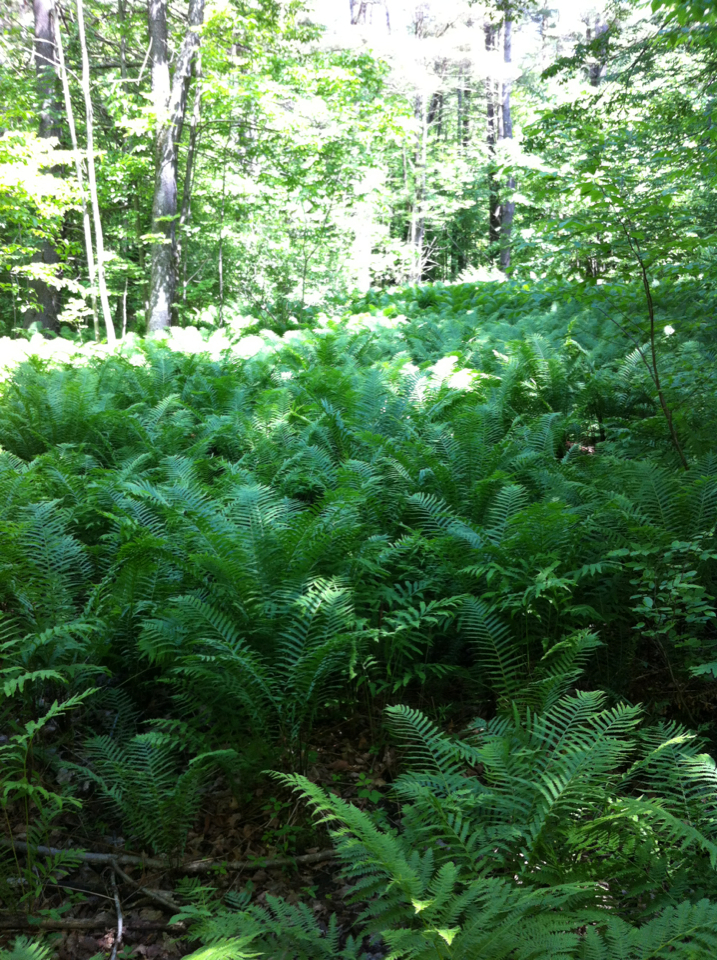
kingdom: Plantae
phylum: Tracheophyta
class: Polypodiopsida
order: Polypodiales
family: Onocleaceae
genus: Matteuccia
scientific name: Matteuccia struthiopteris
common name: Ostrich fern
